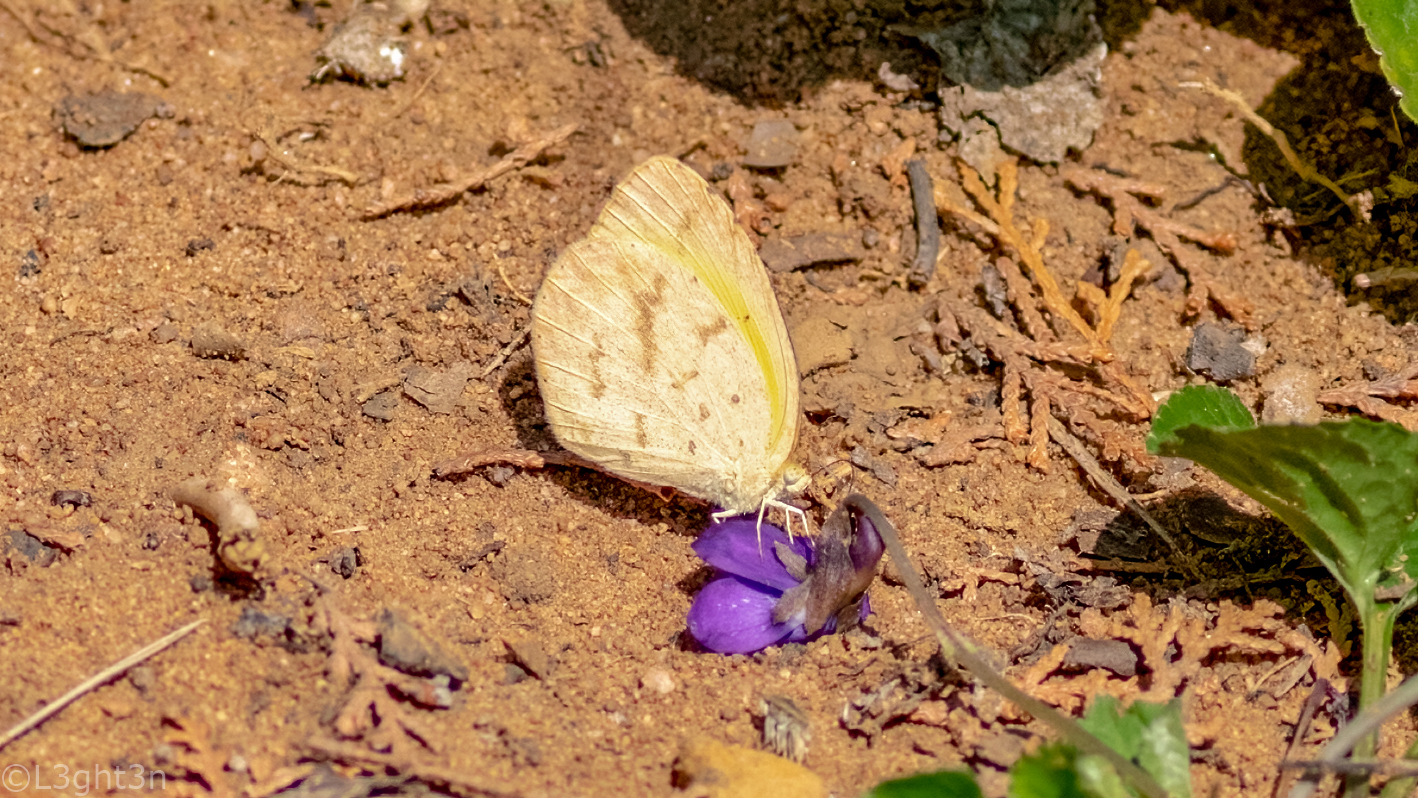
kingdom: Animalia
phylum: Arthropoda
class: Insecta
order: Lepidoptera
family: Pieridae
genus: Eurema
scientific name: Eurema brigitta
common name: Small grass yellow
